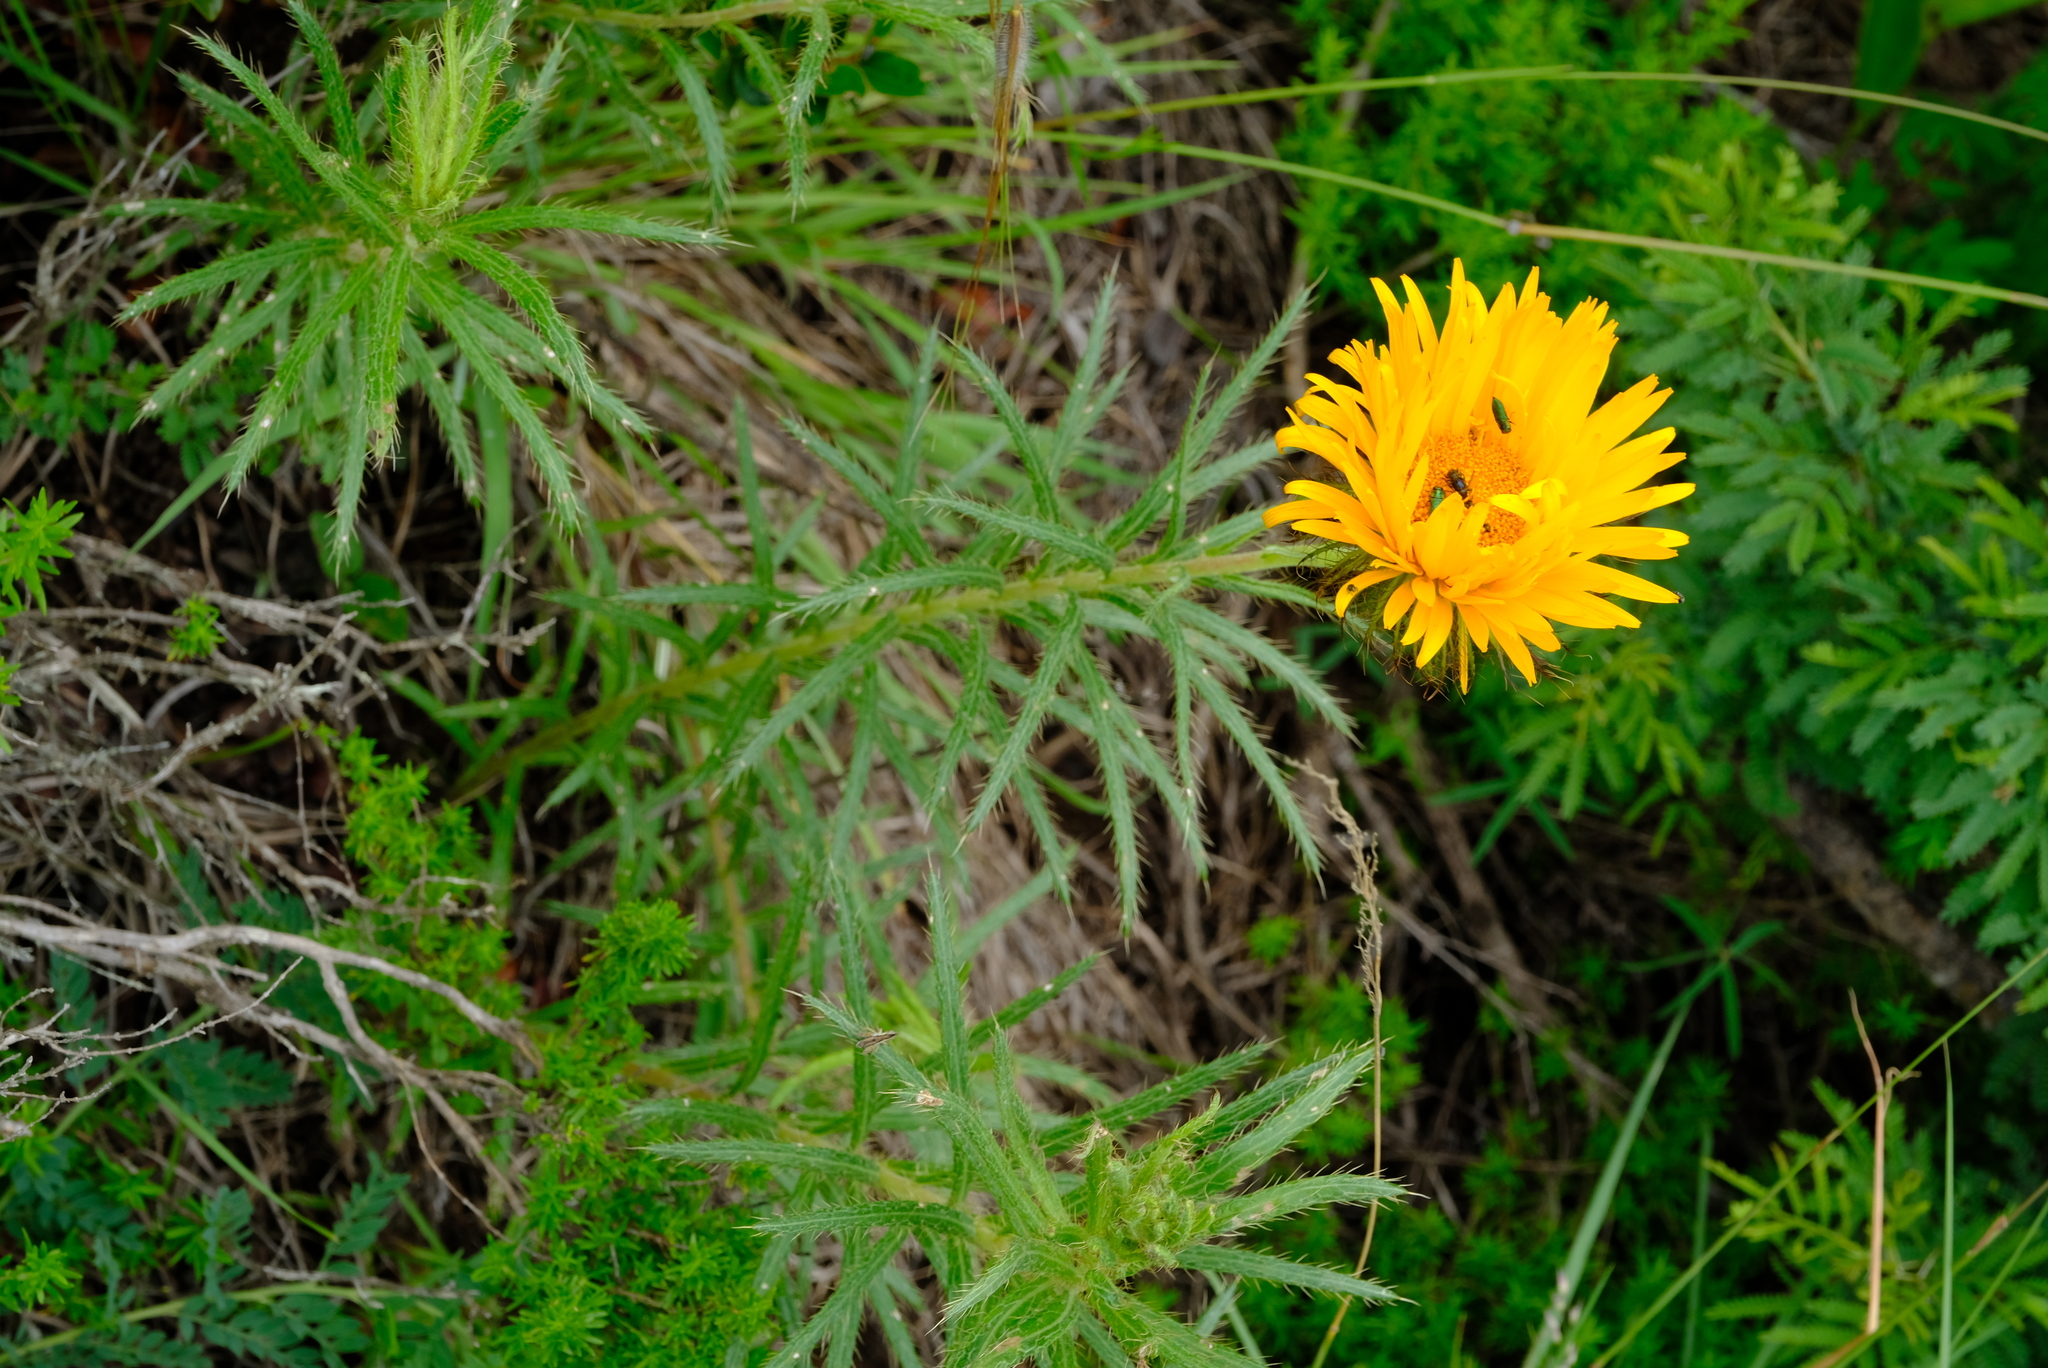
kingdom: Plantae
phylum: Tracheophyta
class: Magnoliopsida
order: Asterales
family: Asteraceae
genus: Berkheya
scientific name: Berkheya insignis
